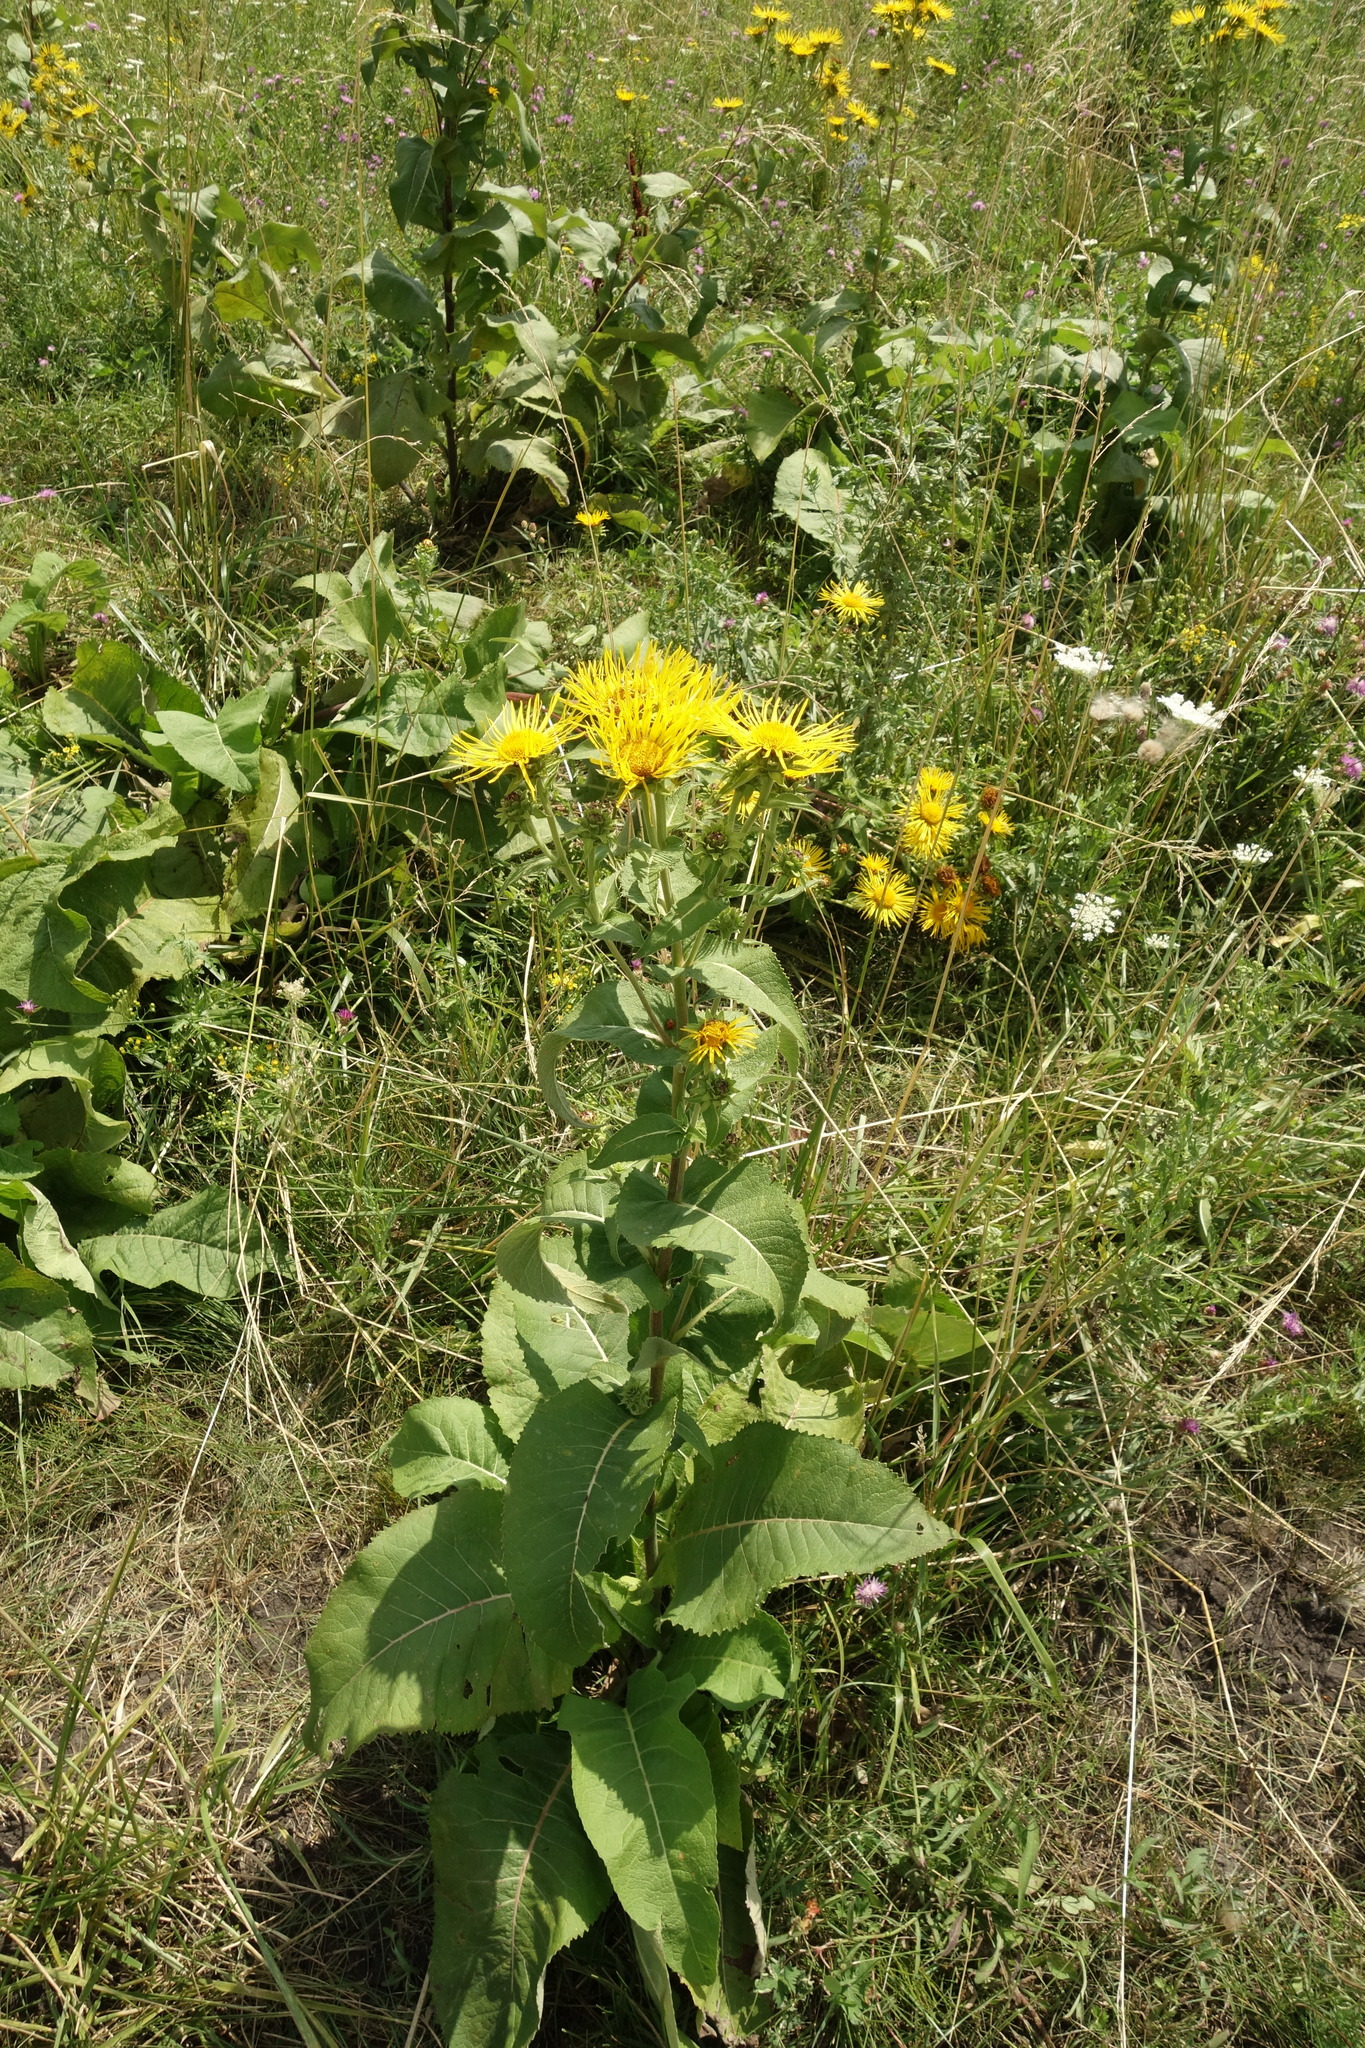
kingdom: Plantae
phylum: Tracheophyta
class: Magnoliopsida
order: Asterales
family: Asteraceae
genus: Inula
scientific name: Inula helenium
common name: Elecampane
